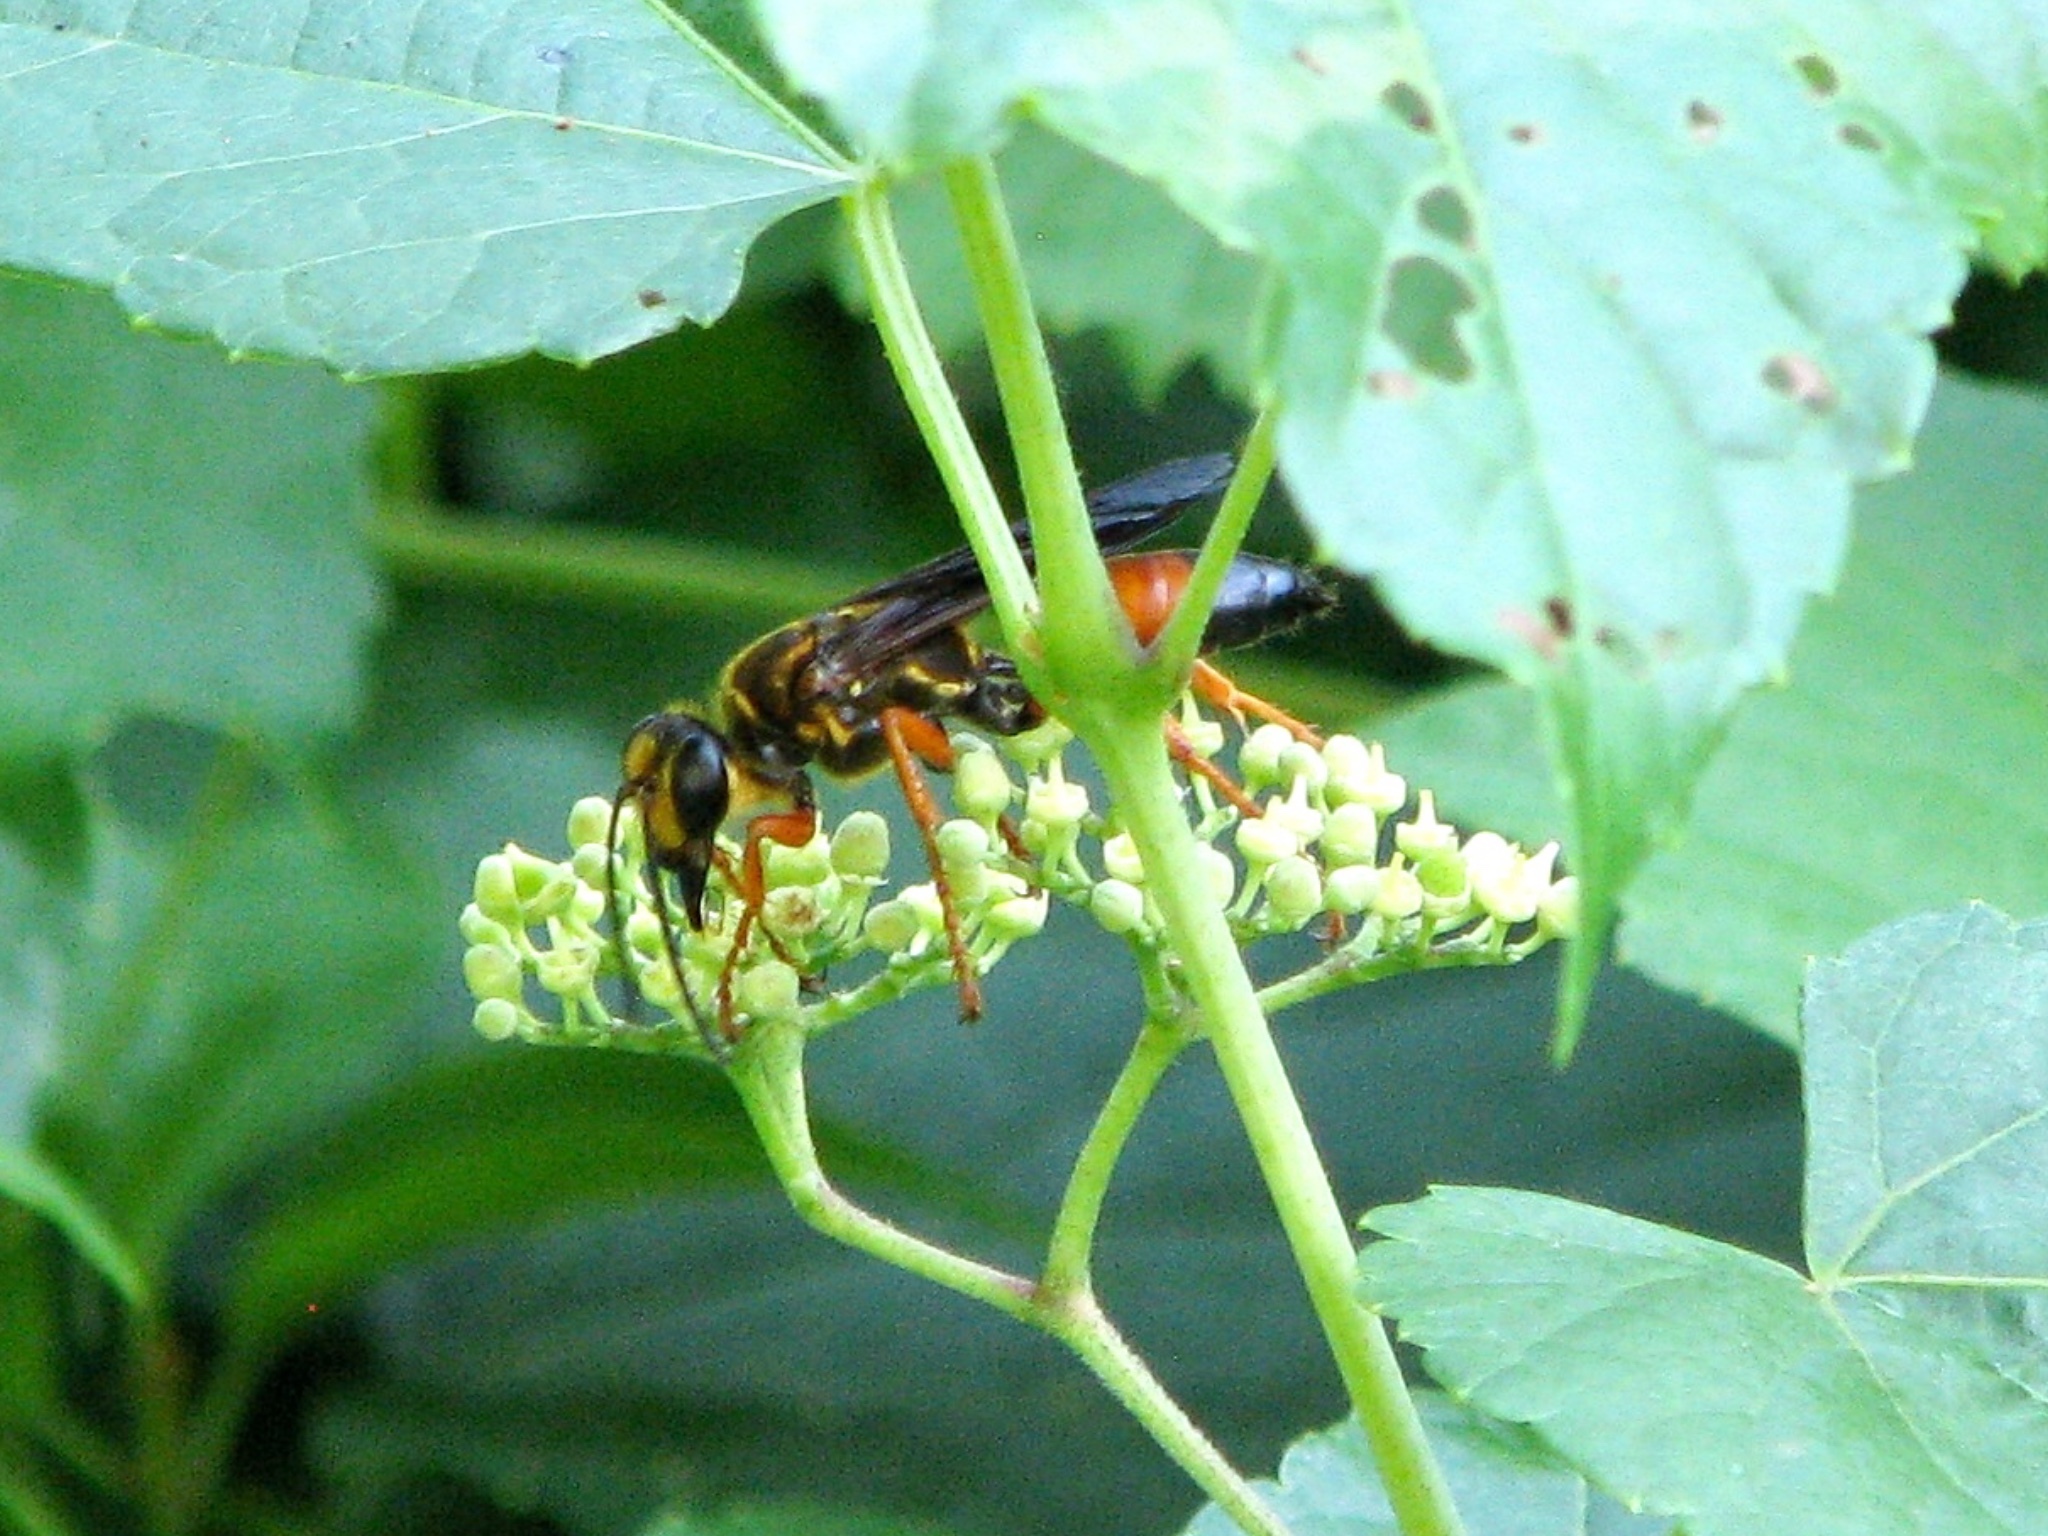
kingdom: Animalia
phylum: Arthropoda
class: Insecta
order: Hymenoptera
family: Sphecidae
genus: Sphex
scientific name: Sphex ichneumoneus
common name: Great golden digger wasp
